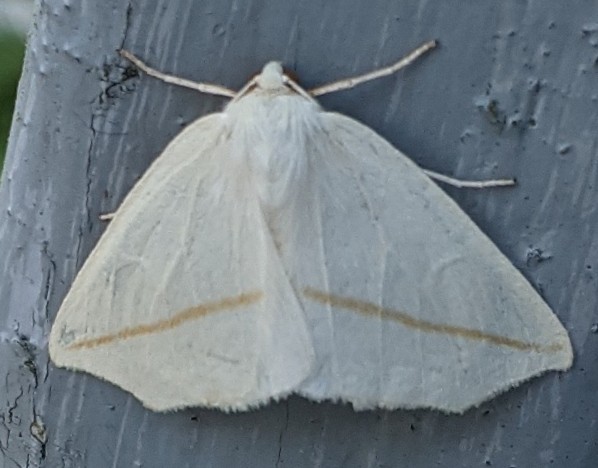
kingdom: Animalia
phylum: Arthropoda
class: Insecta
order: Lepidoptera
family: Geometridae
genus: Tetracis
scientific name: Tetracis cachexiata
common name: White slant-line
